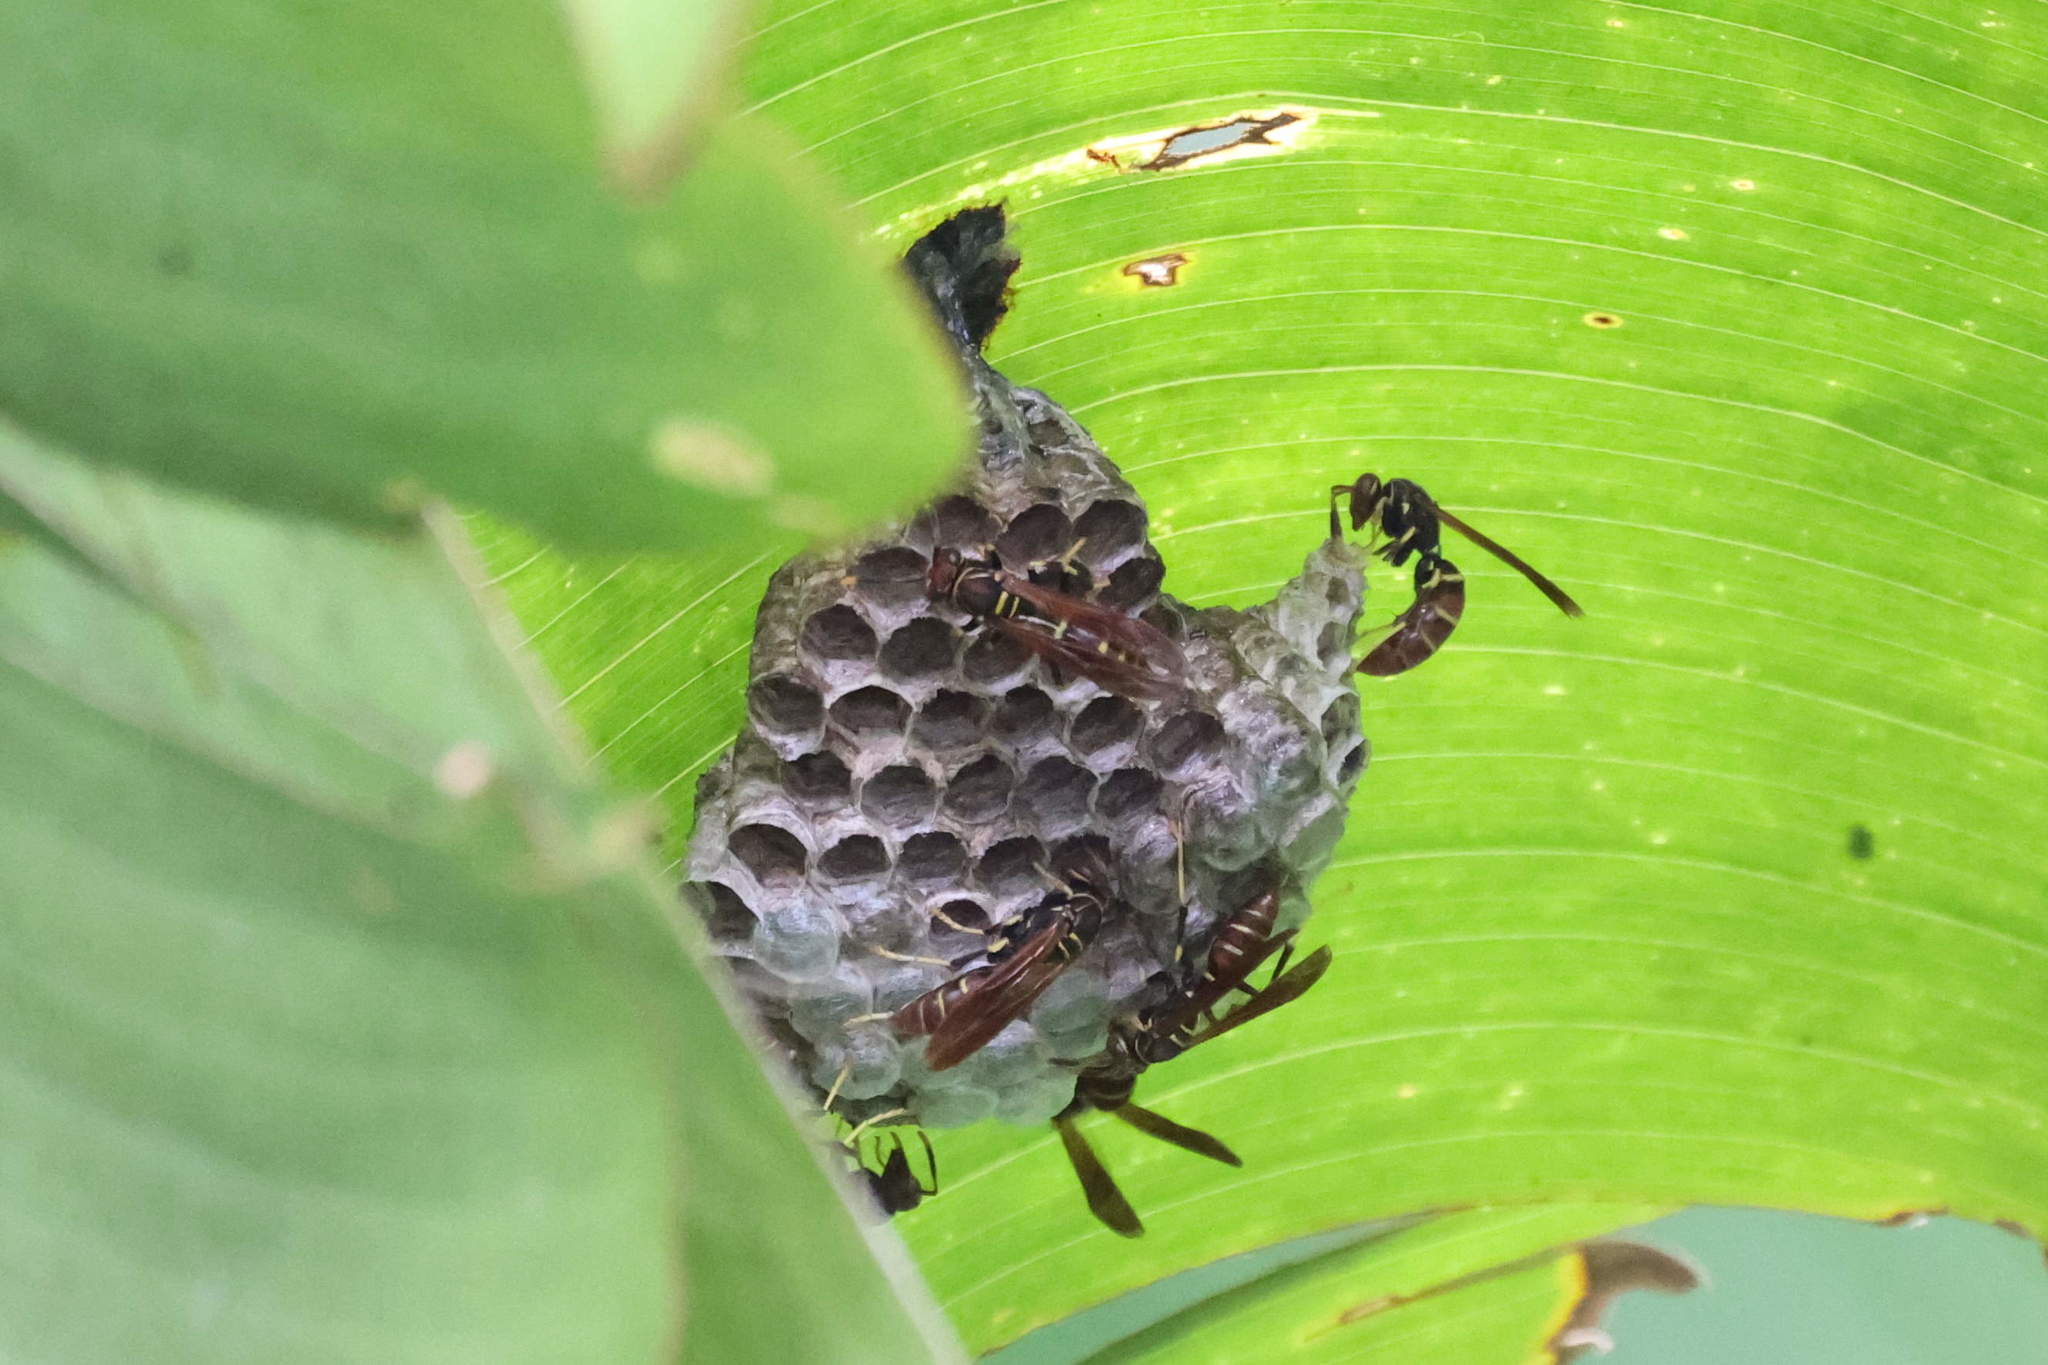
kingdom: Animalia
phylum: Arthropoda
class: Insecta
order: Hymenoptera
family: Eumenidae
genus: Polistes
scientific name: Polistes crinitus
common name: Jack spaniard
